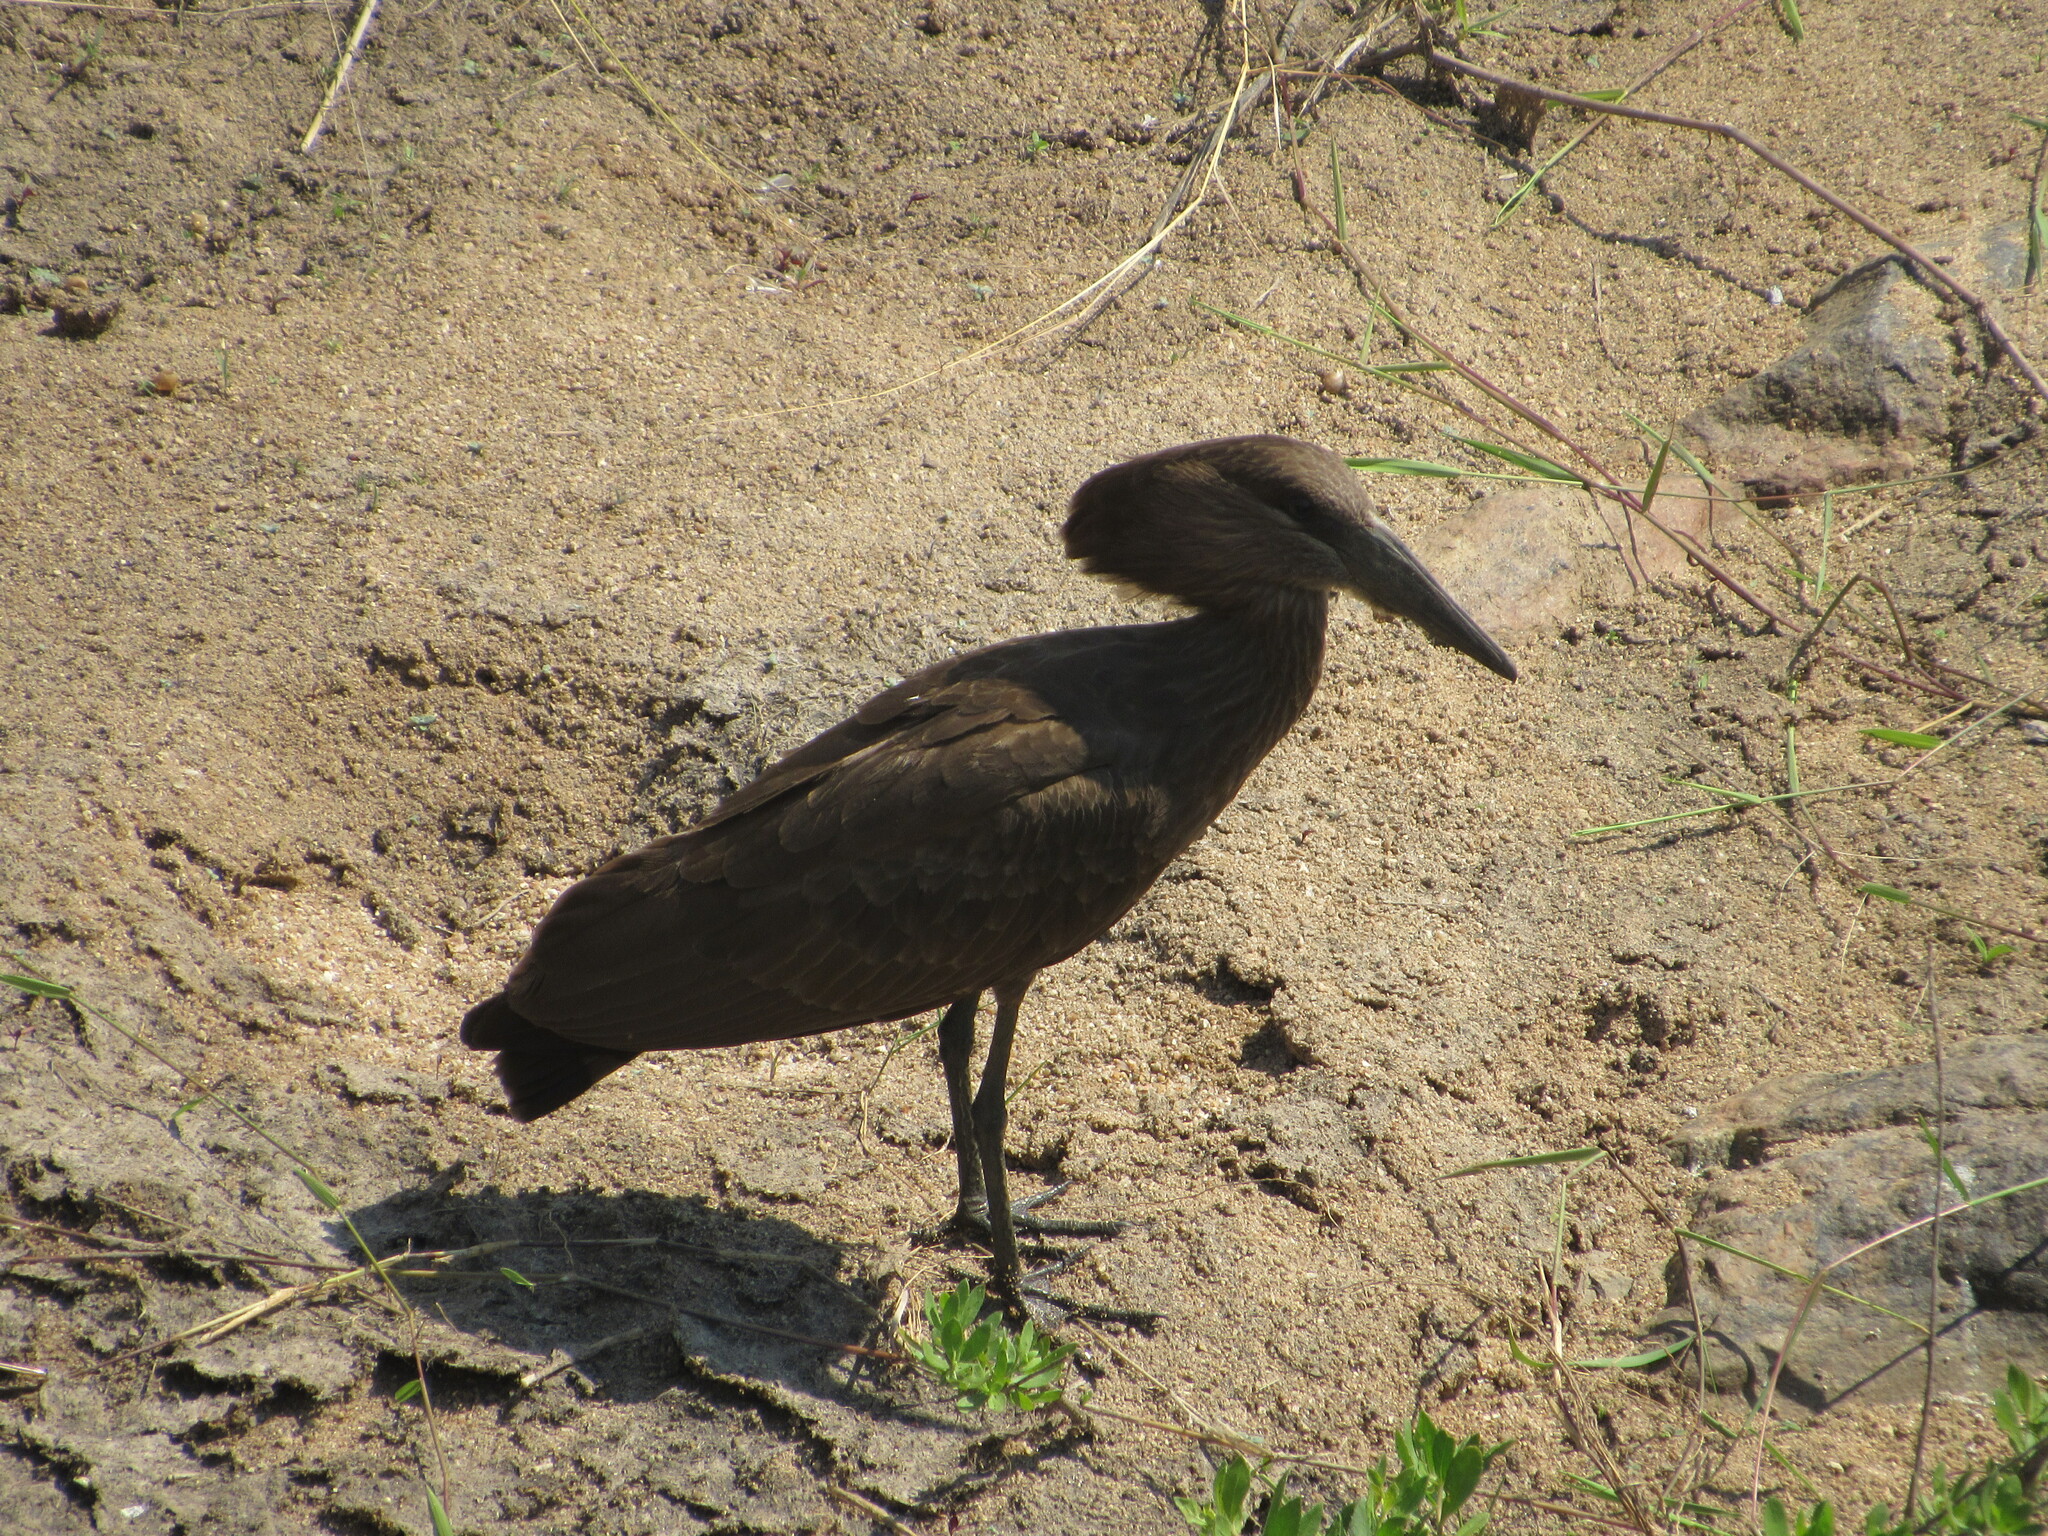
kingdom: Animalia
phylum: Chordata
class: Aves
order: Pelecaniformes
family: Scopidae
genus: Scopus
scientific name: Scopus umbretta
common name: Hamerkop
